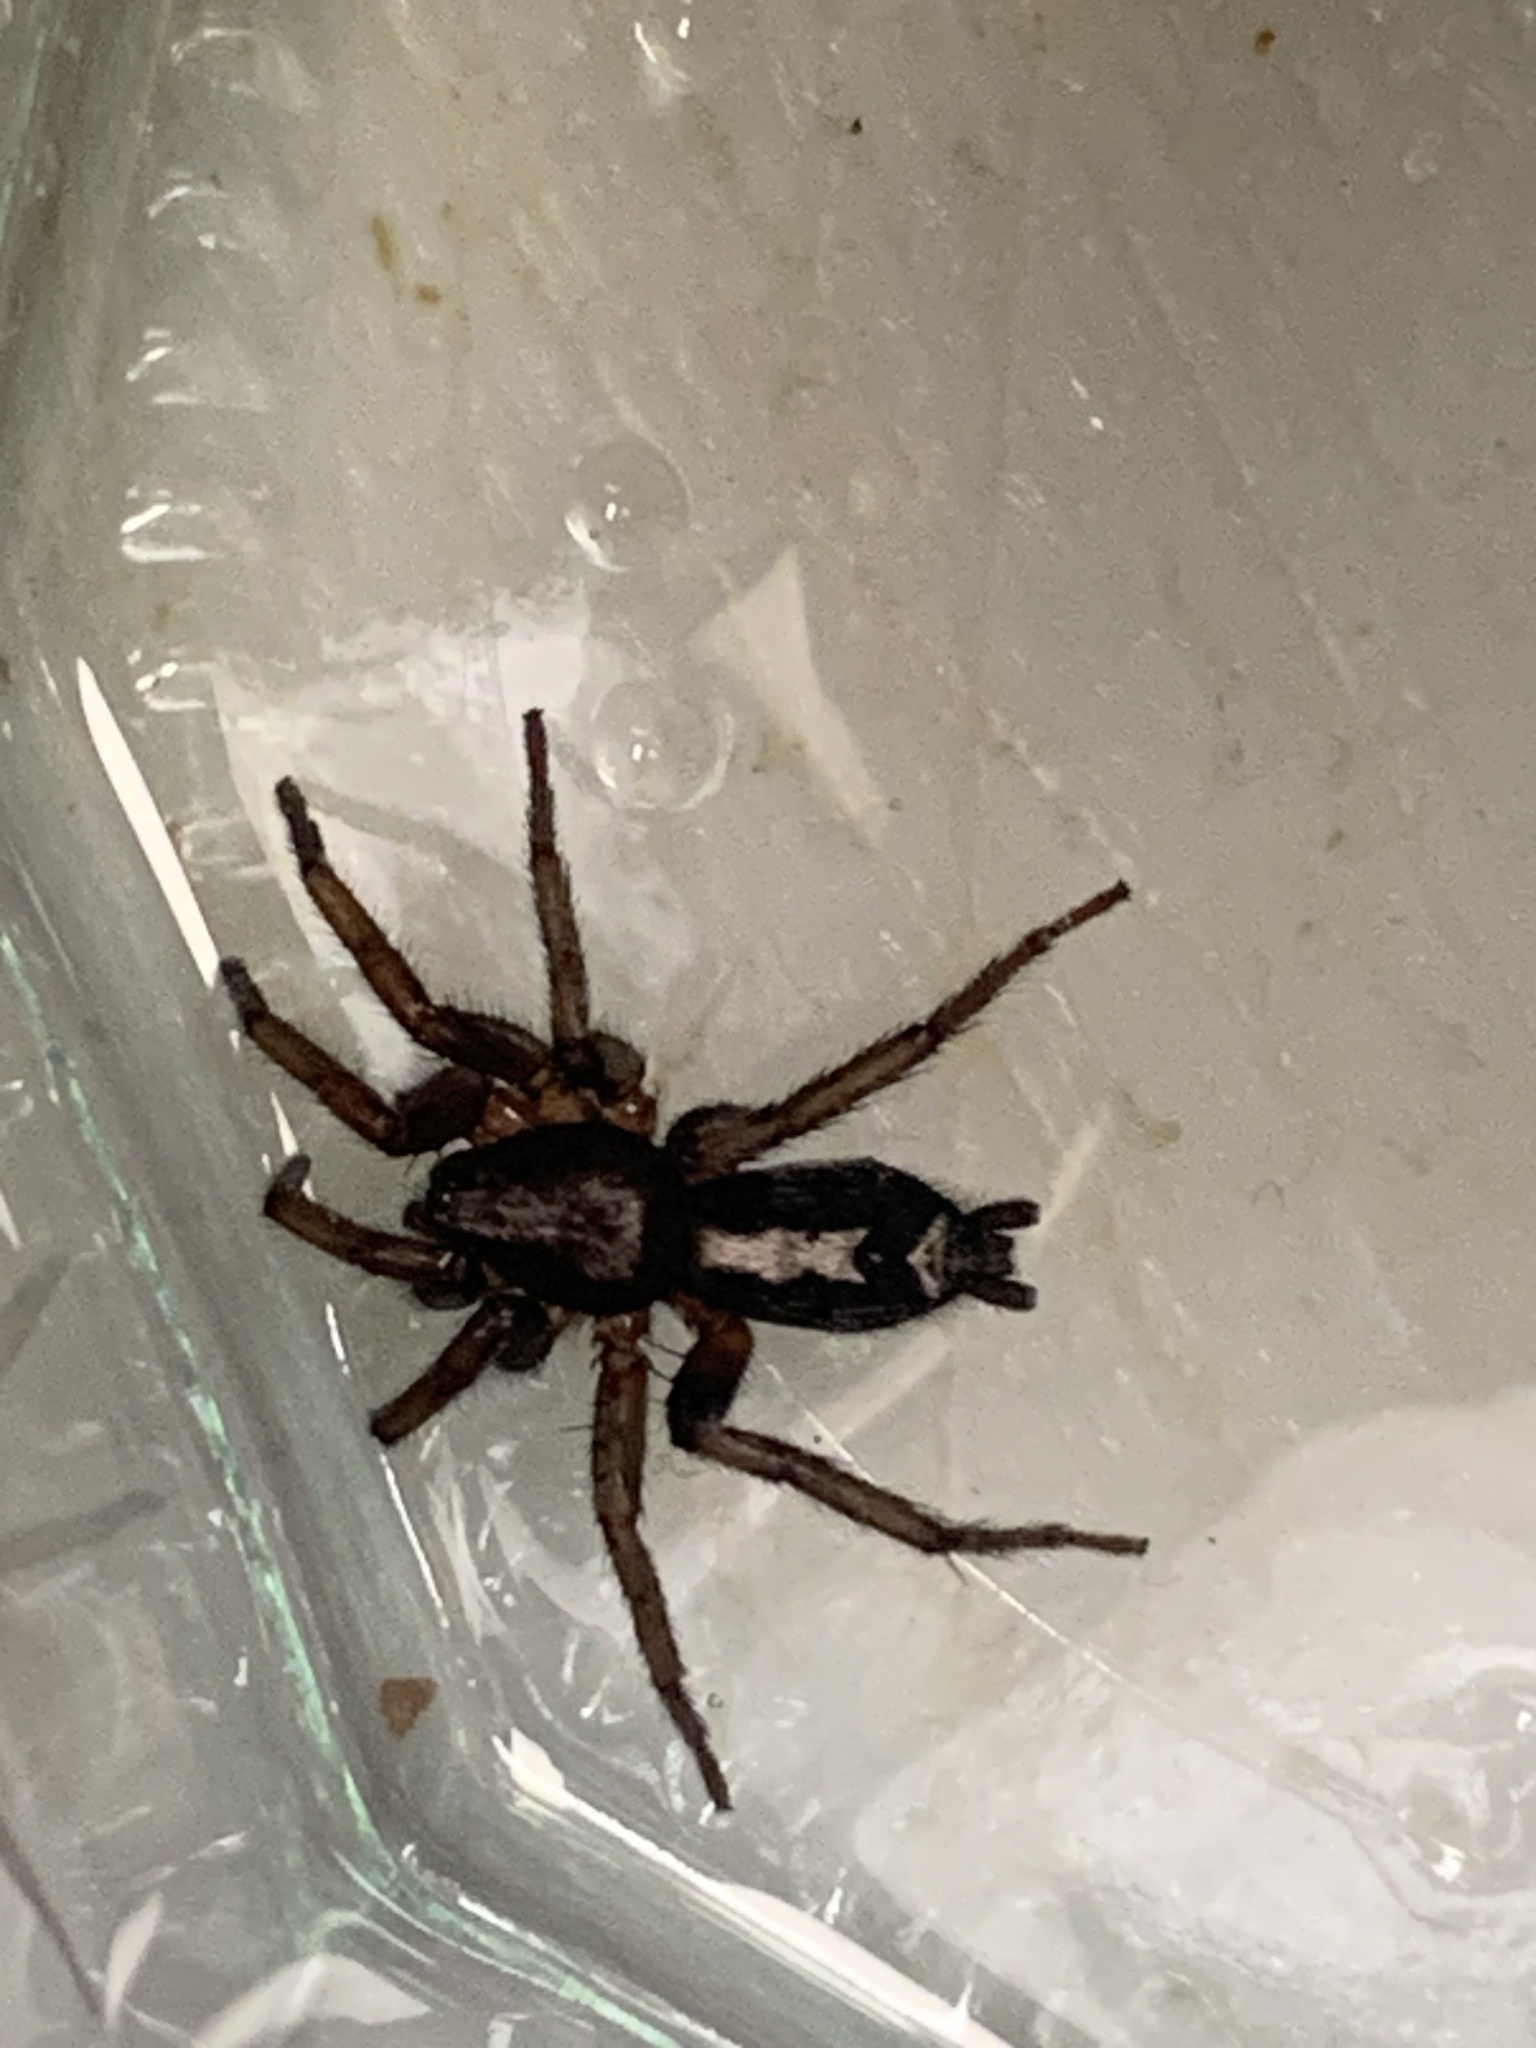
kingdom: Animalia
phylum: Arthropoda
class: Arachnida
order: Araneae
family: Gnaphosidae
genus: Herpyllus
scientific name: Herpyllus ecclesiasticus
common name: Eastern parson spider
